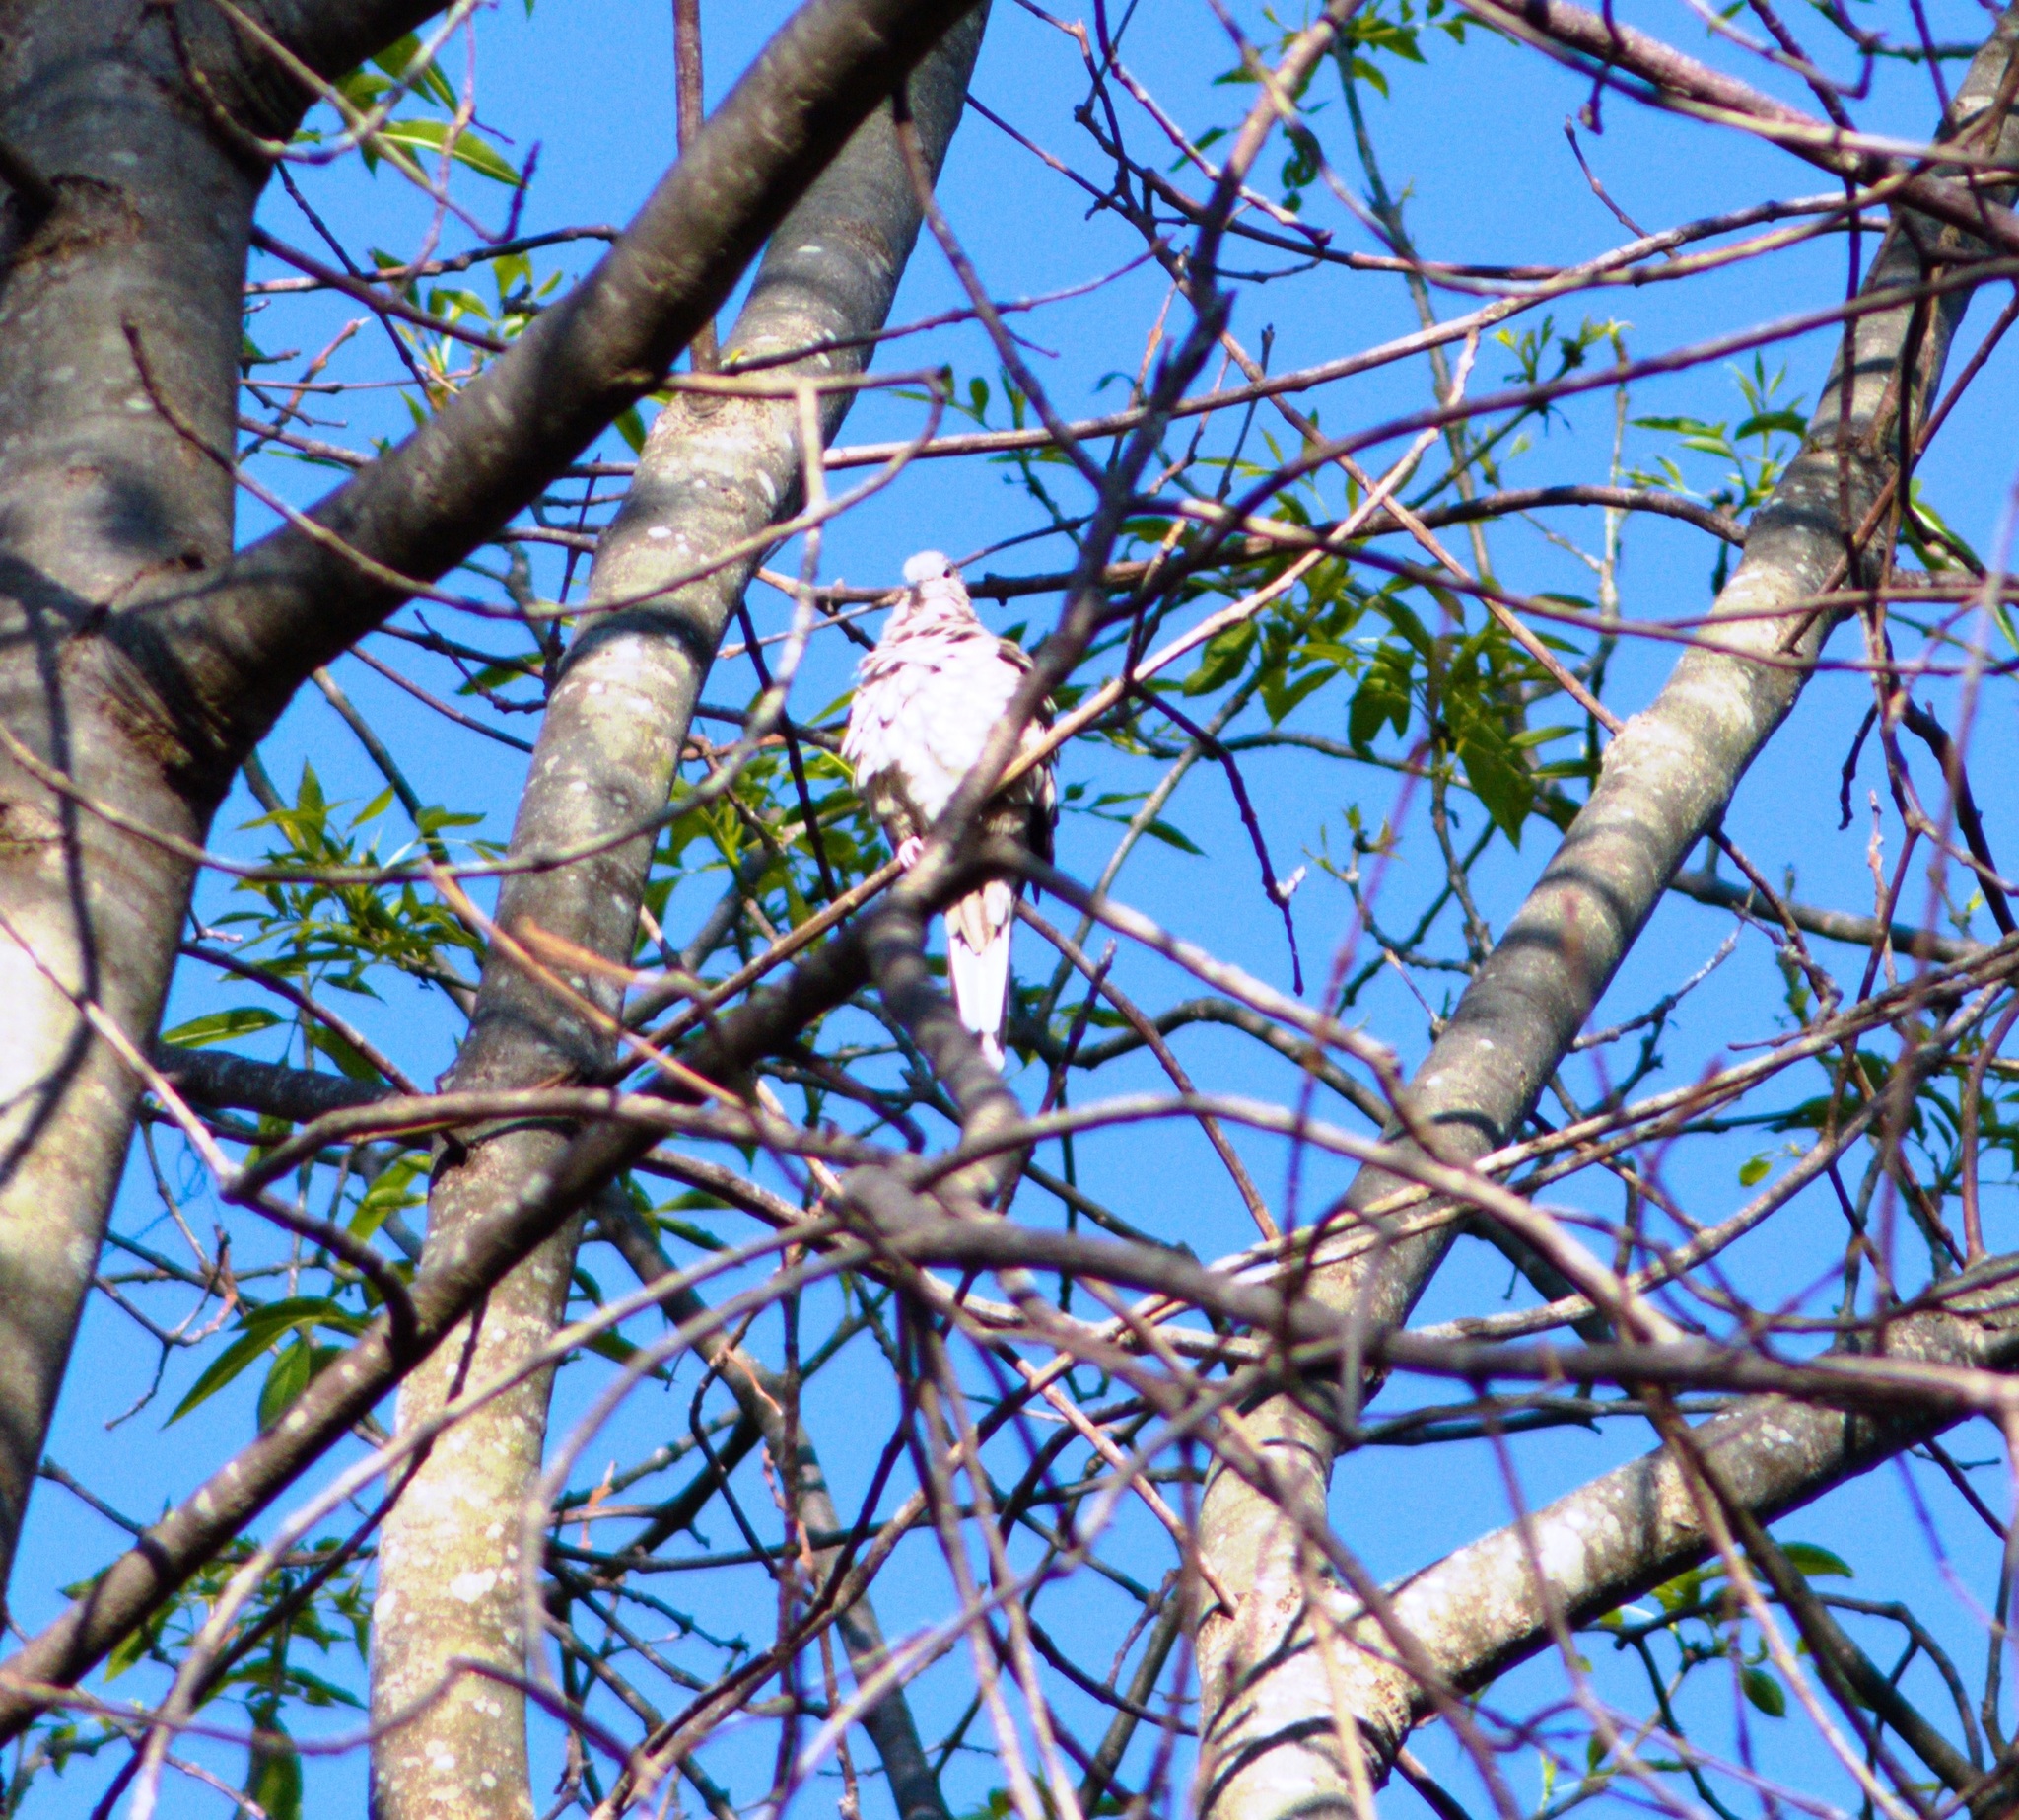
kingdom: Animalia
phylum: Chordata
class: Aves
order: Columbiformes
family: Columbidae
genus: Columbina
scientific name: Columbina inca
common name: Inca dove
